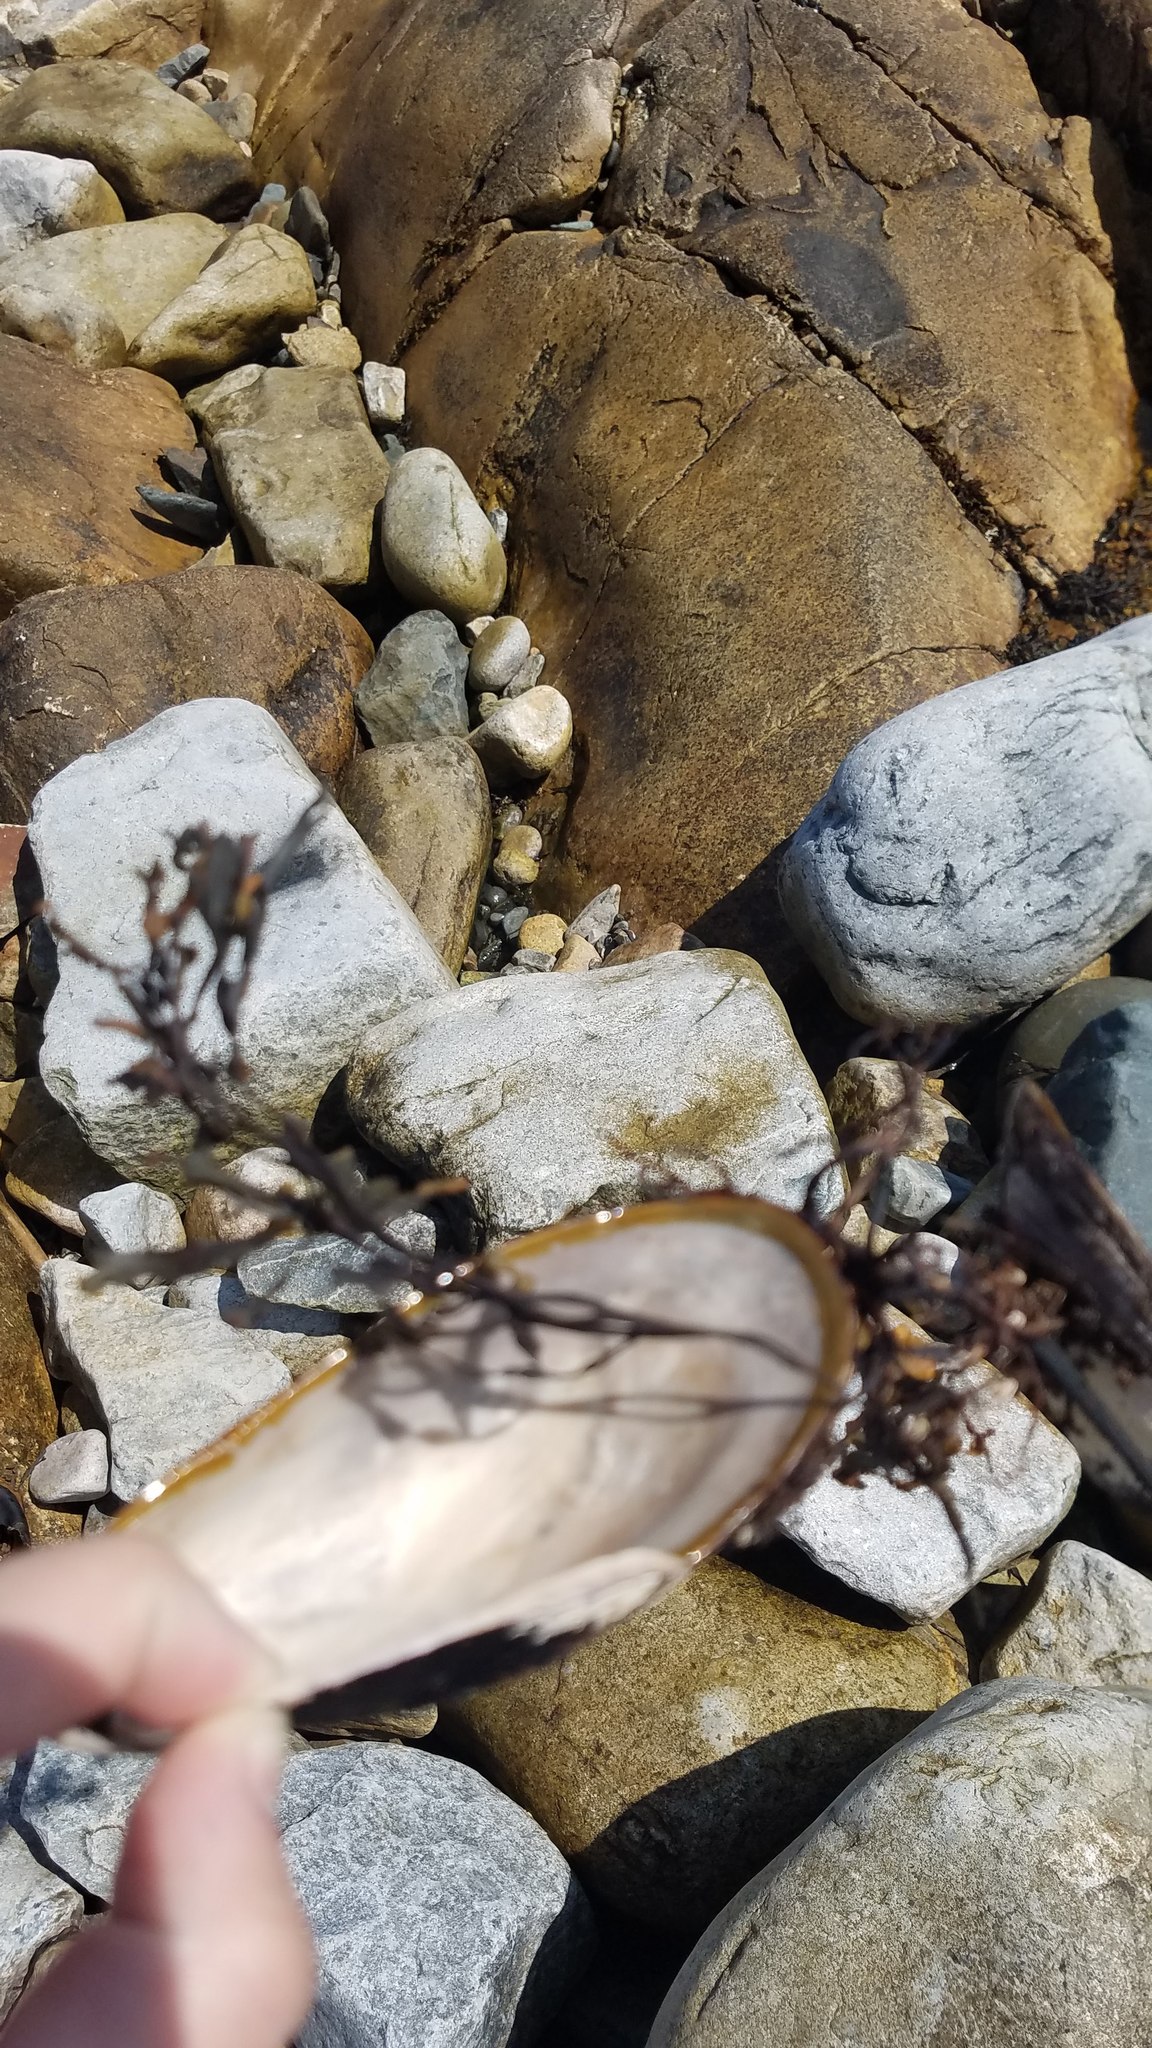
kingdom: Animalia
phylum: Mollusca
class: Bivalvia
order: Mytilida
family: Mytilidae
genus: Modiolus
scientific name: Modiolus modiolus
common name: Horse-mussel
